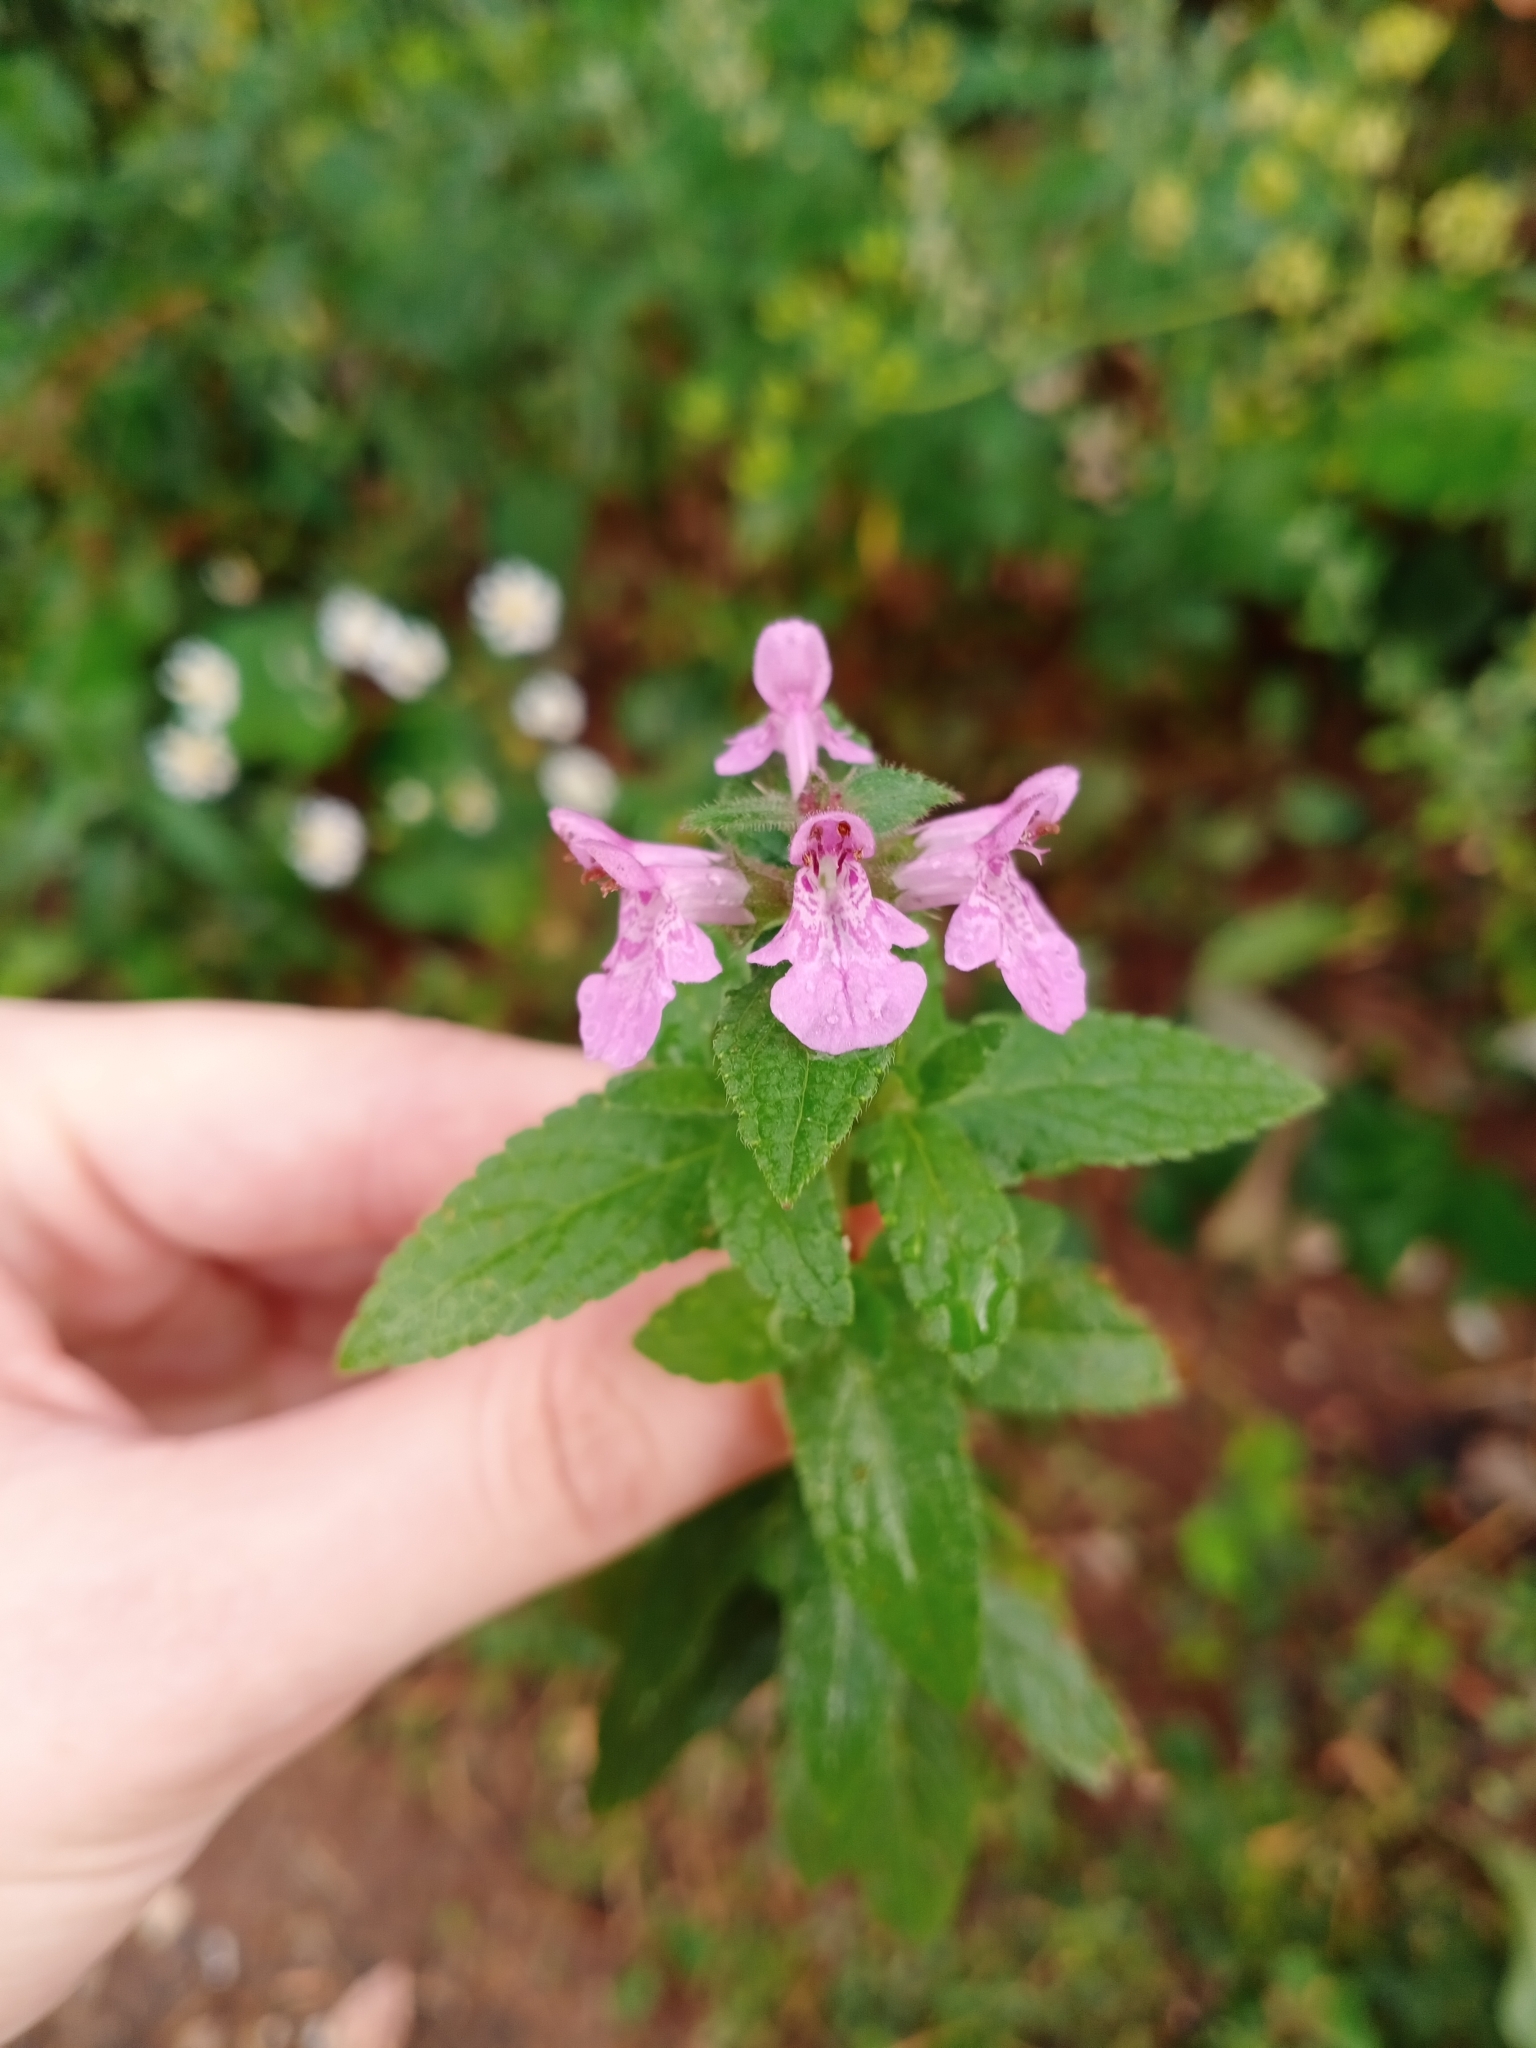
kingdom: Plantae
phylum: Tracheophyta
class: Magnoliopsida
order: Lamiales
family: Lamiaceae
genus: Stachys
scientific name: Stachys palustris
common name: Marsh woundwort
